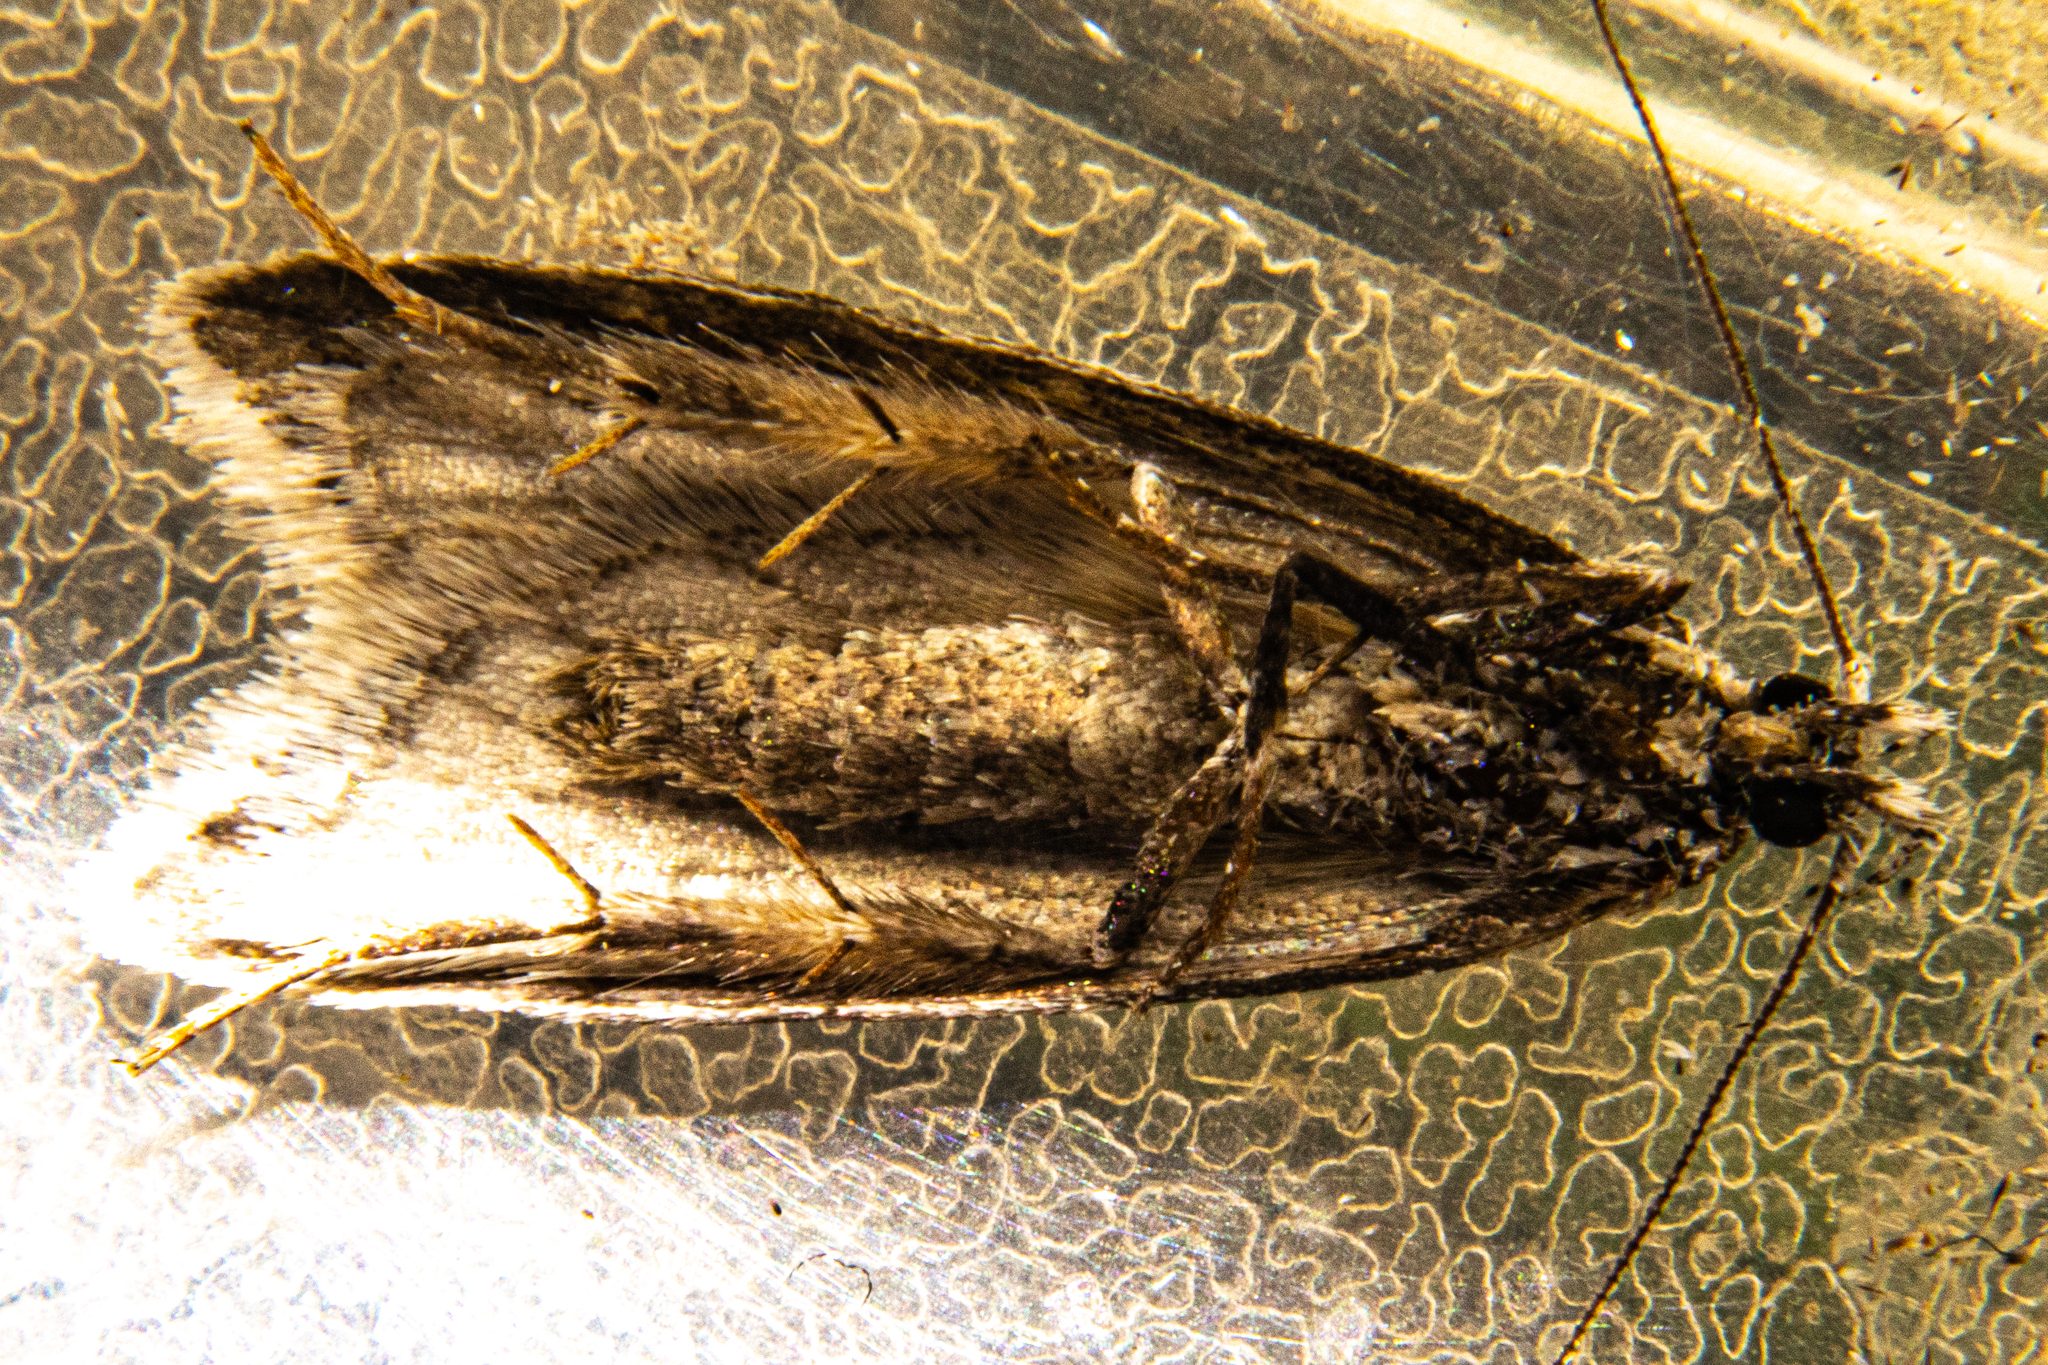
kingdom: Animalia
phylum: Arthropoda
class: Insecta
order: Lepidoptera
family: Oecophoridae
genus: Izatha
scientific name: Izatha psychra
